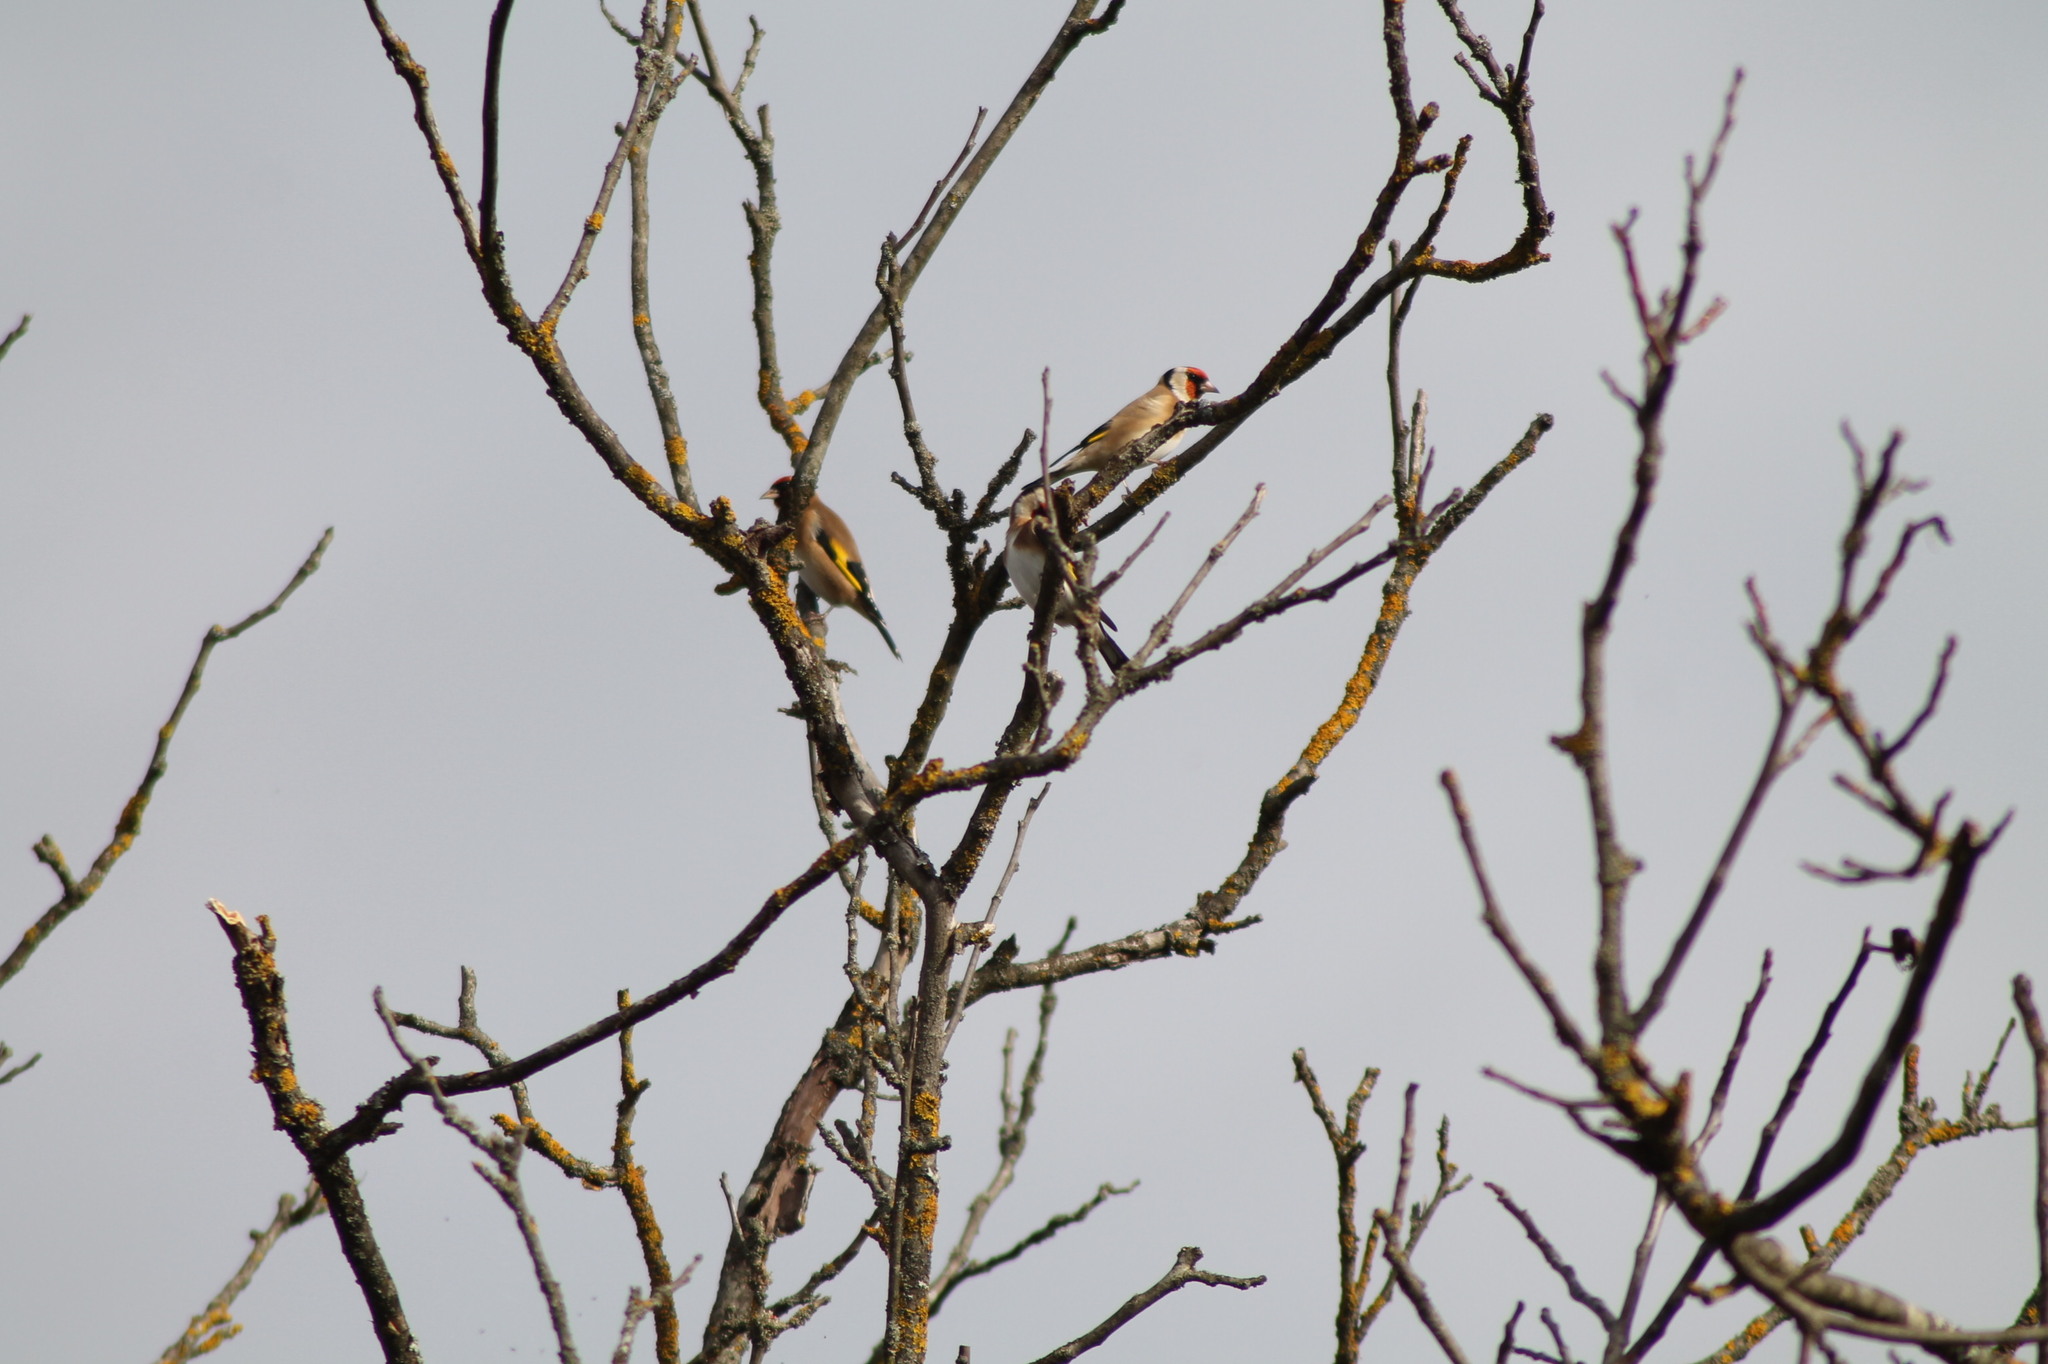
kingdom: Animalia
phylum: Chordata
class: Aves
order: Passeriformes
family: Fringillidae
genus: Carduelis
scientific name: Carduelis carduelis
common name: European goldfinch
